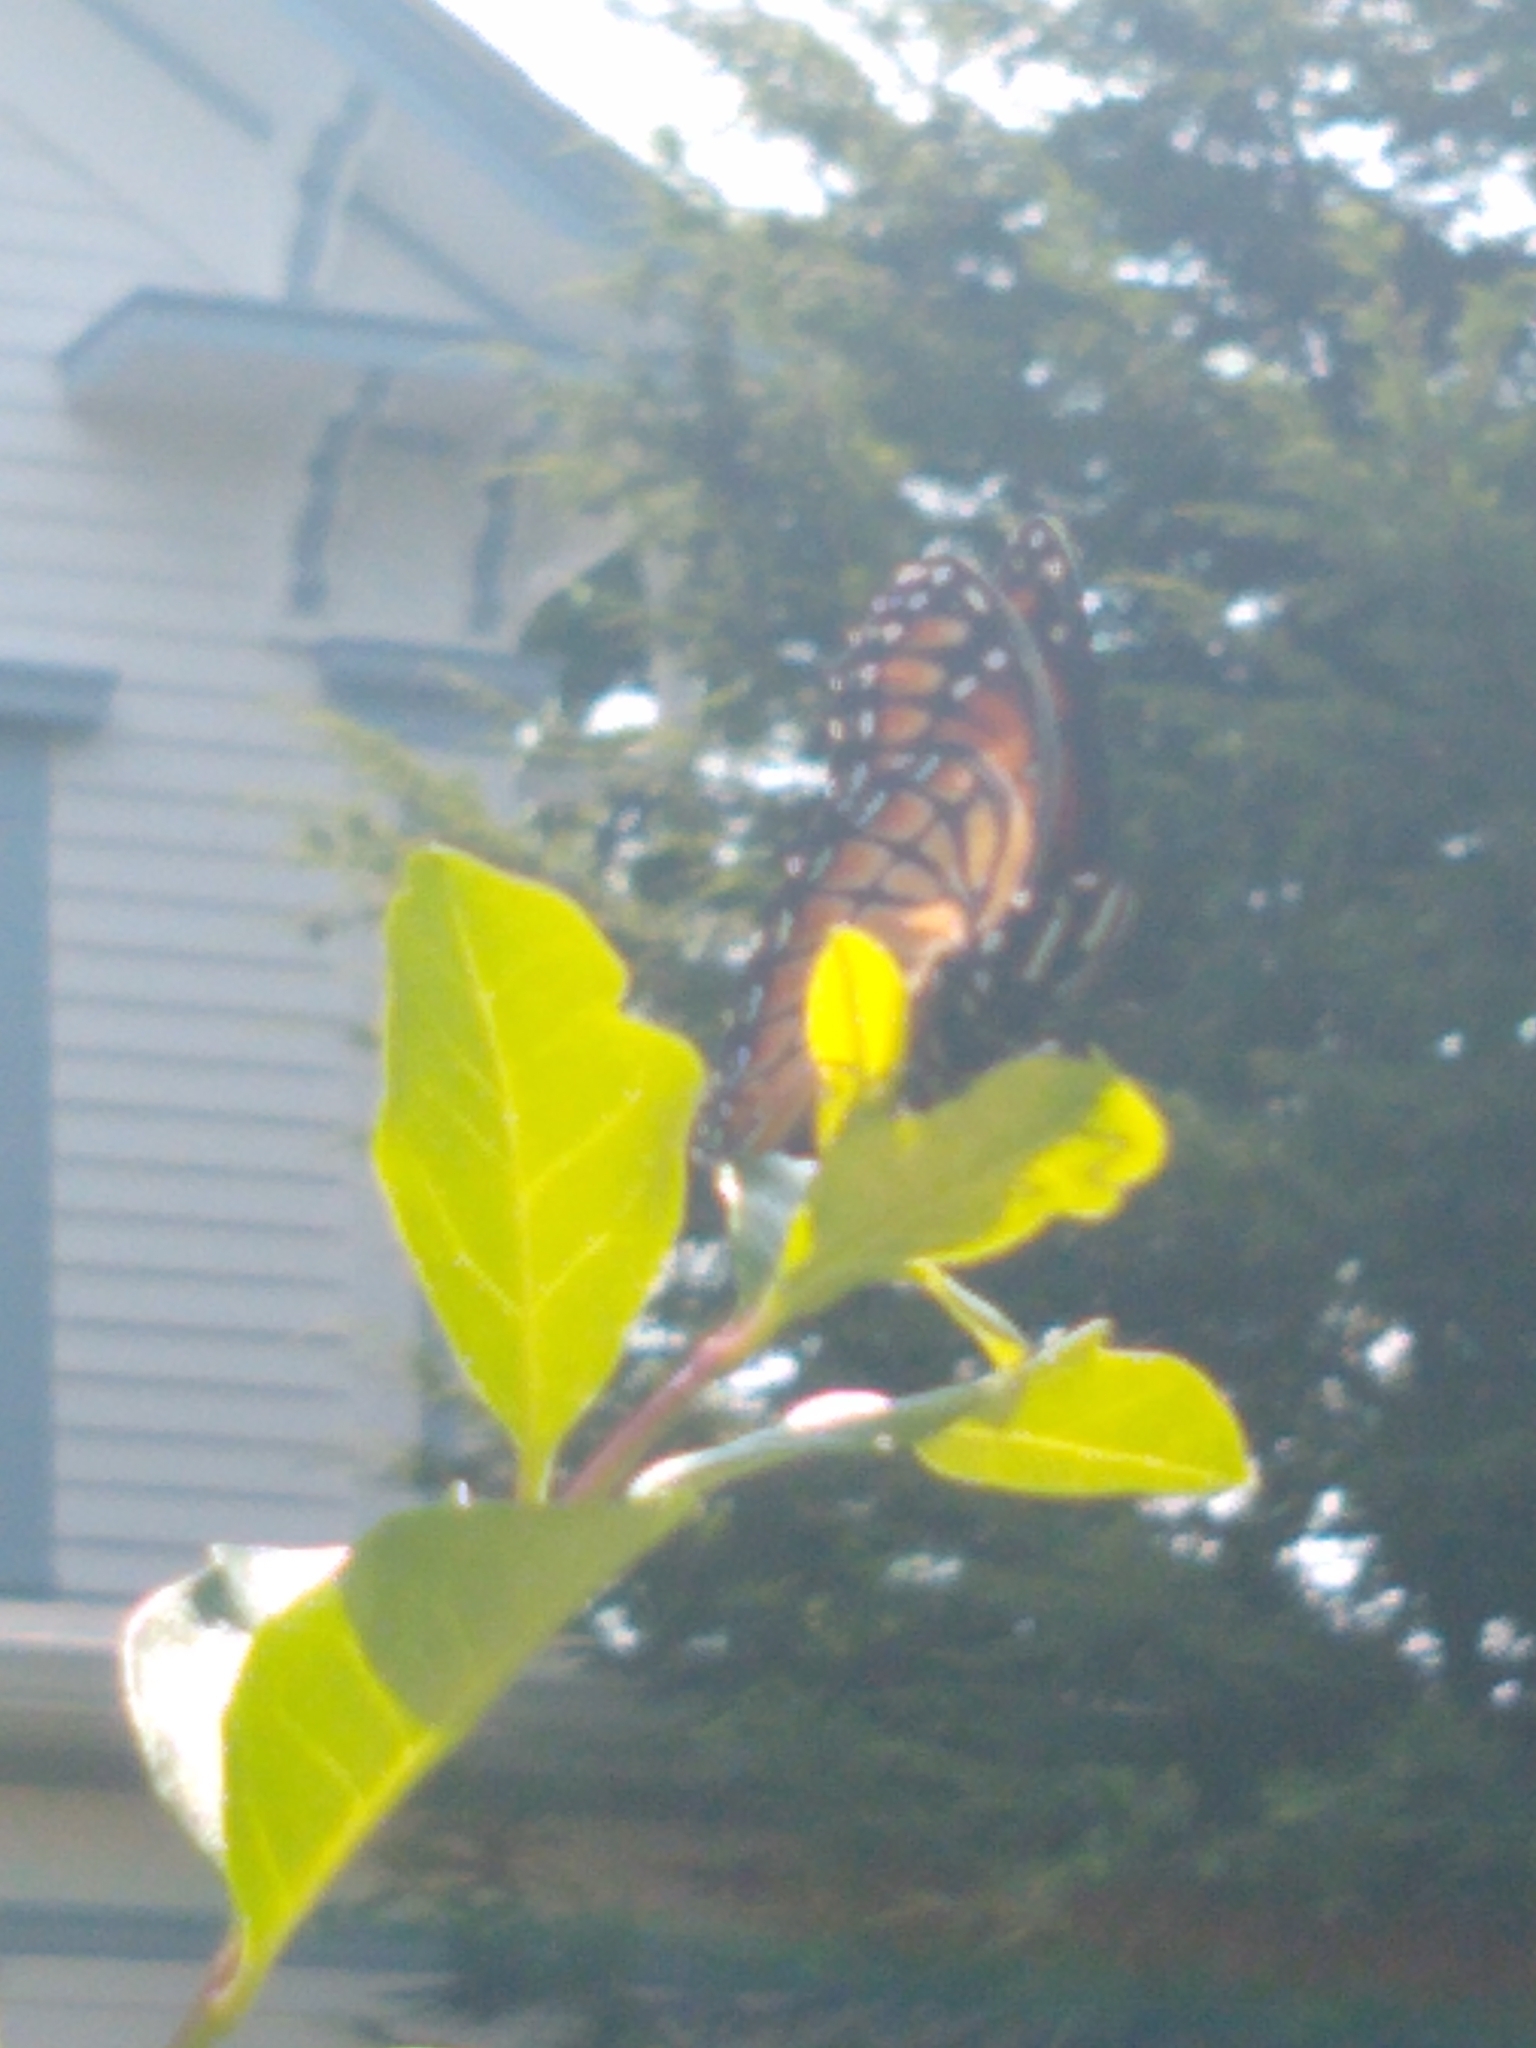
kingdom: Animalia
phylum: Arthropoda
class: Insecta
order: Lepidoptera
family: Nymphalidae
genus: Limenitis
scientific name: Limenitis archippus
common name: Viceroy
